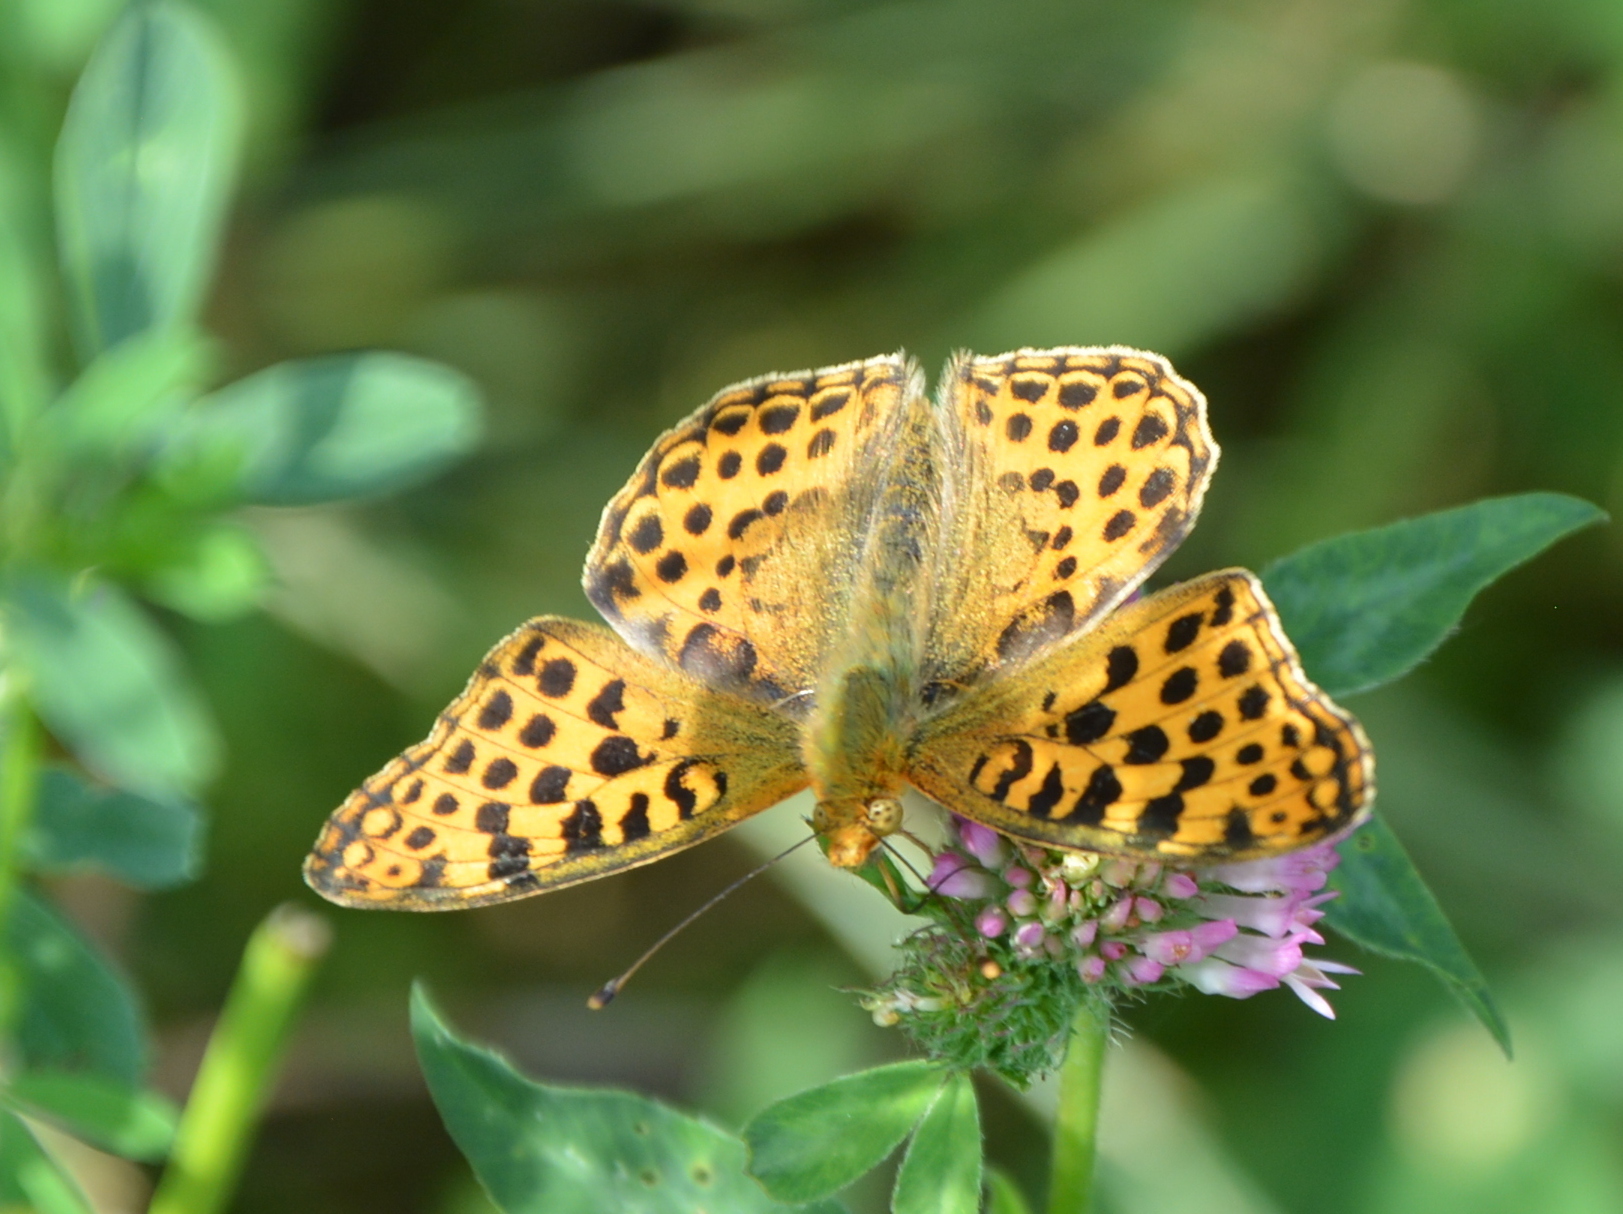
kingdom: Animalia
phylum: Arthropoda
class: Insecta
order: Lepidoptera
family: Nymphalidae
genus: Issoria
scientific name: Issoria lathonia
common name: Queen of spain fritillary
